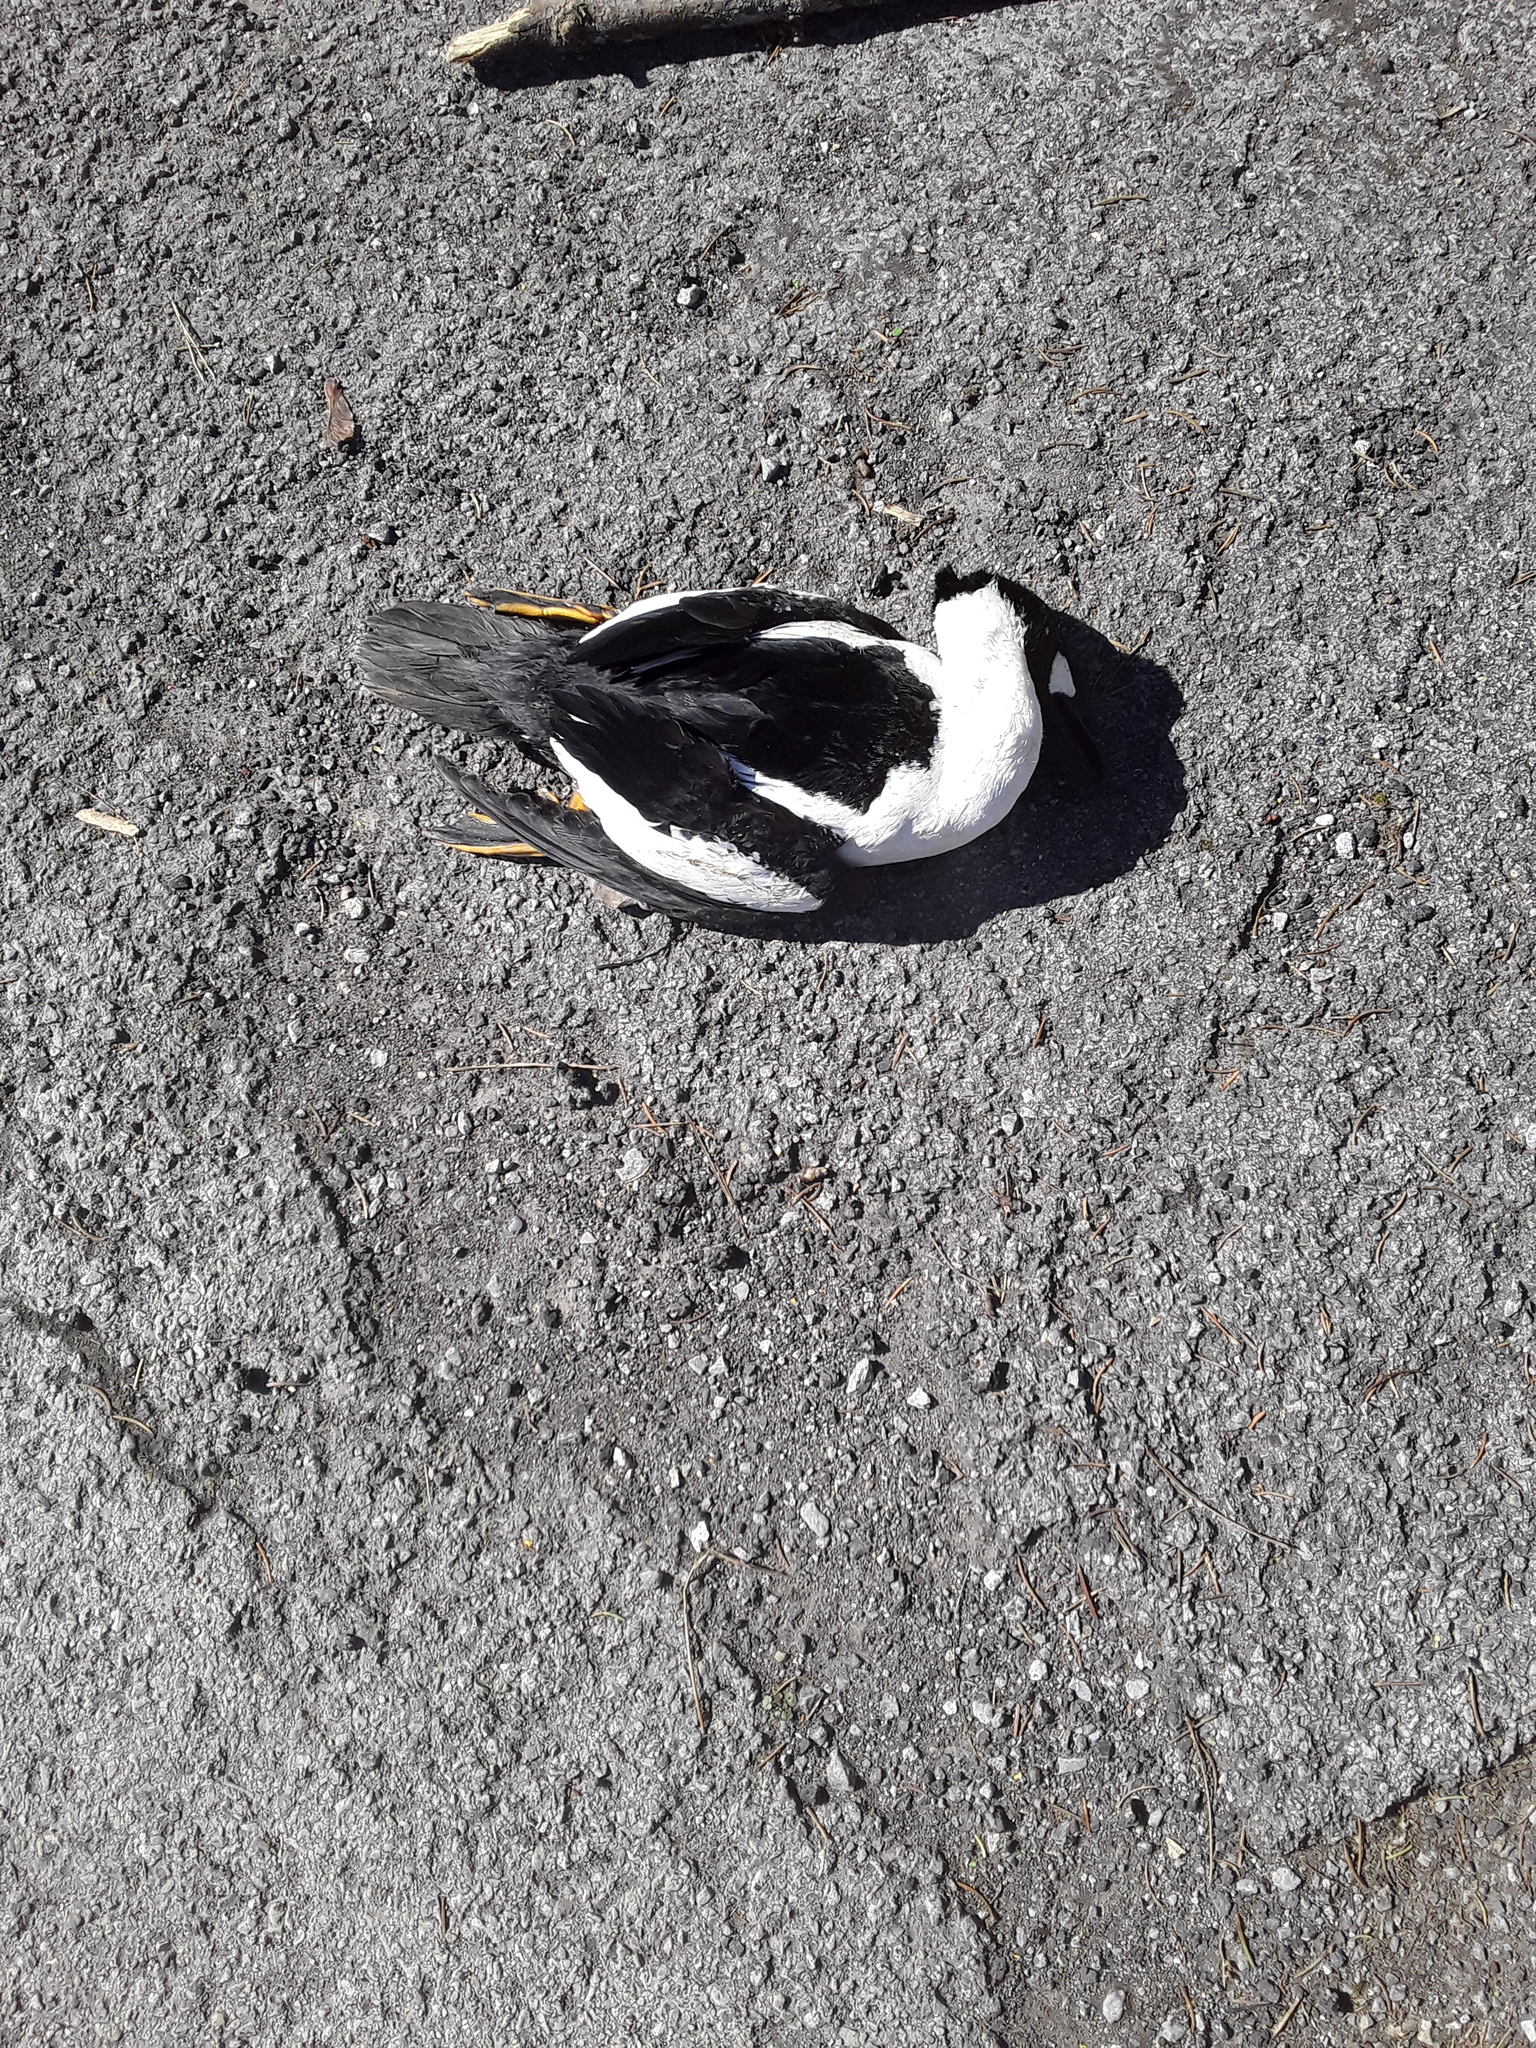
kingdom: Animalia
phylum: Chordata
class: Aves
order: Anseriformes
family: Anatidae
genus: Bucephala
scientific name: Bucephala clangula
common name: Common goldeneye
